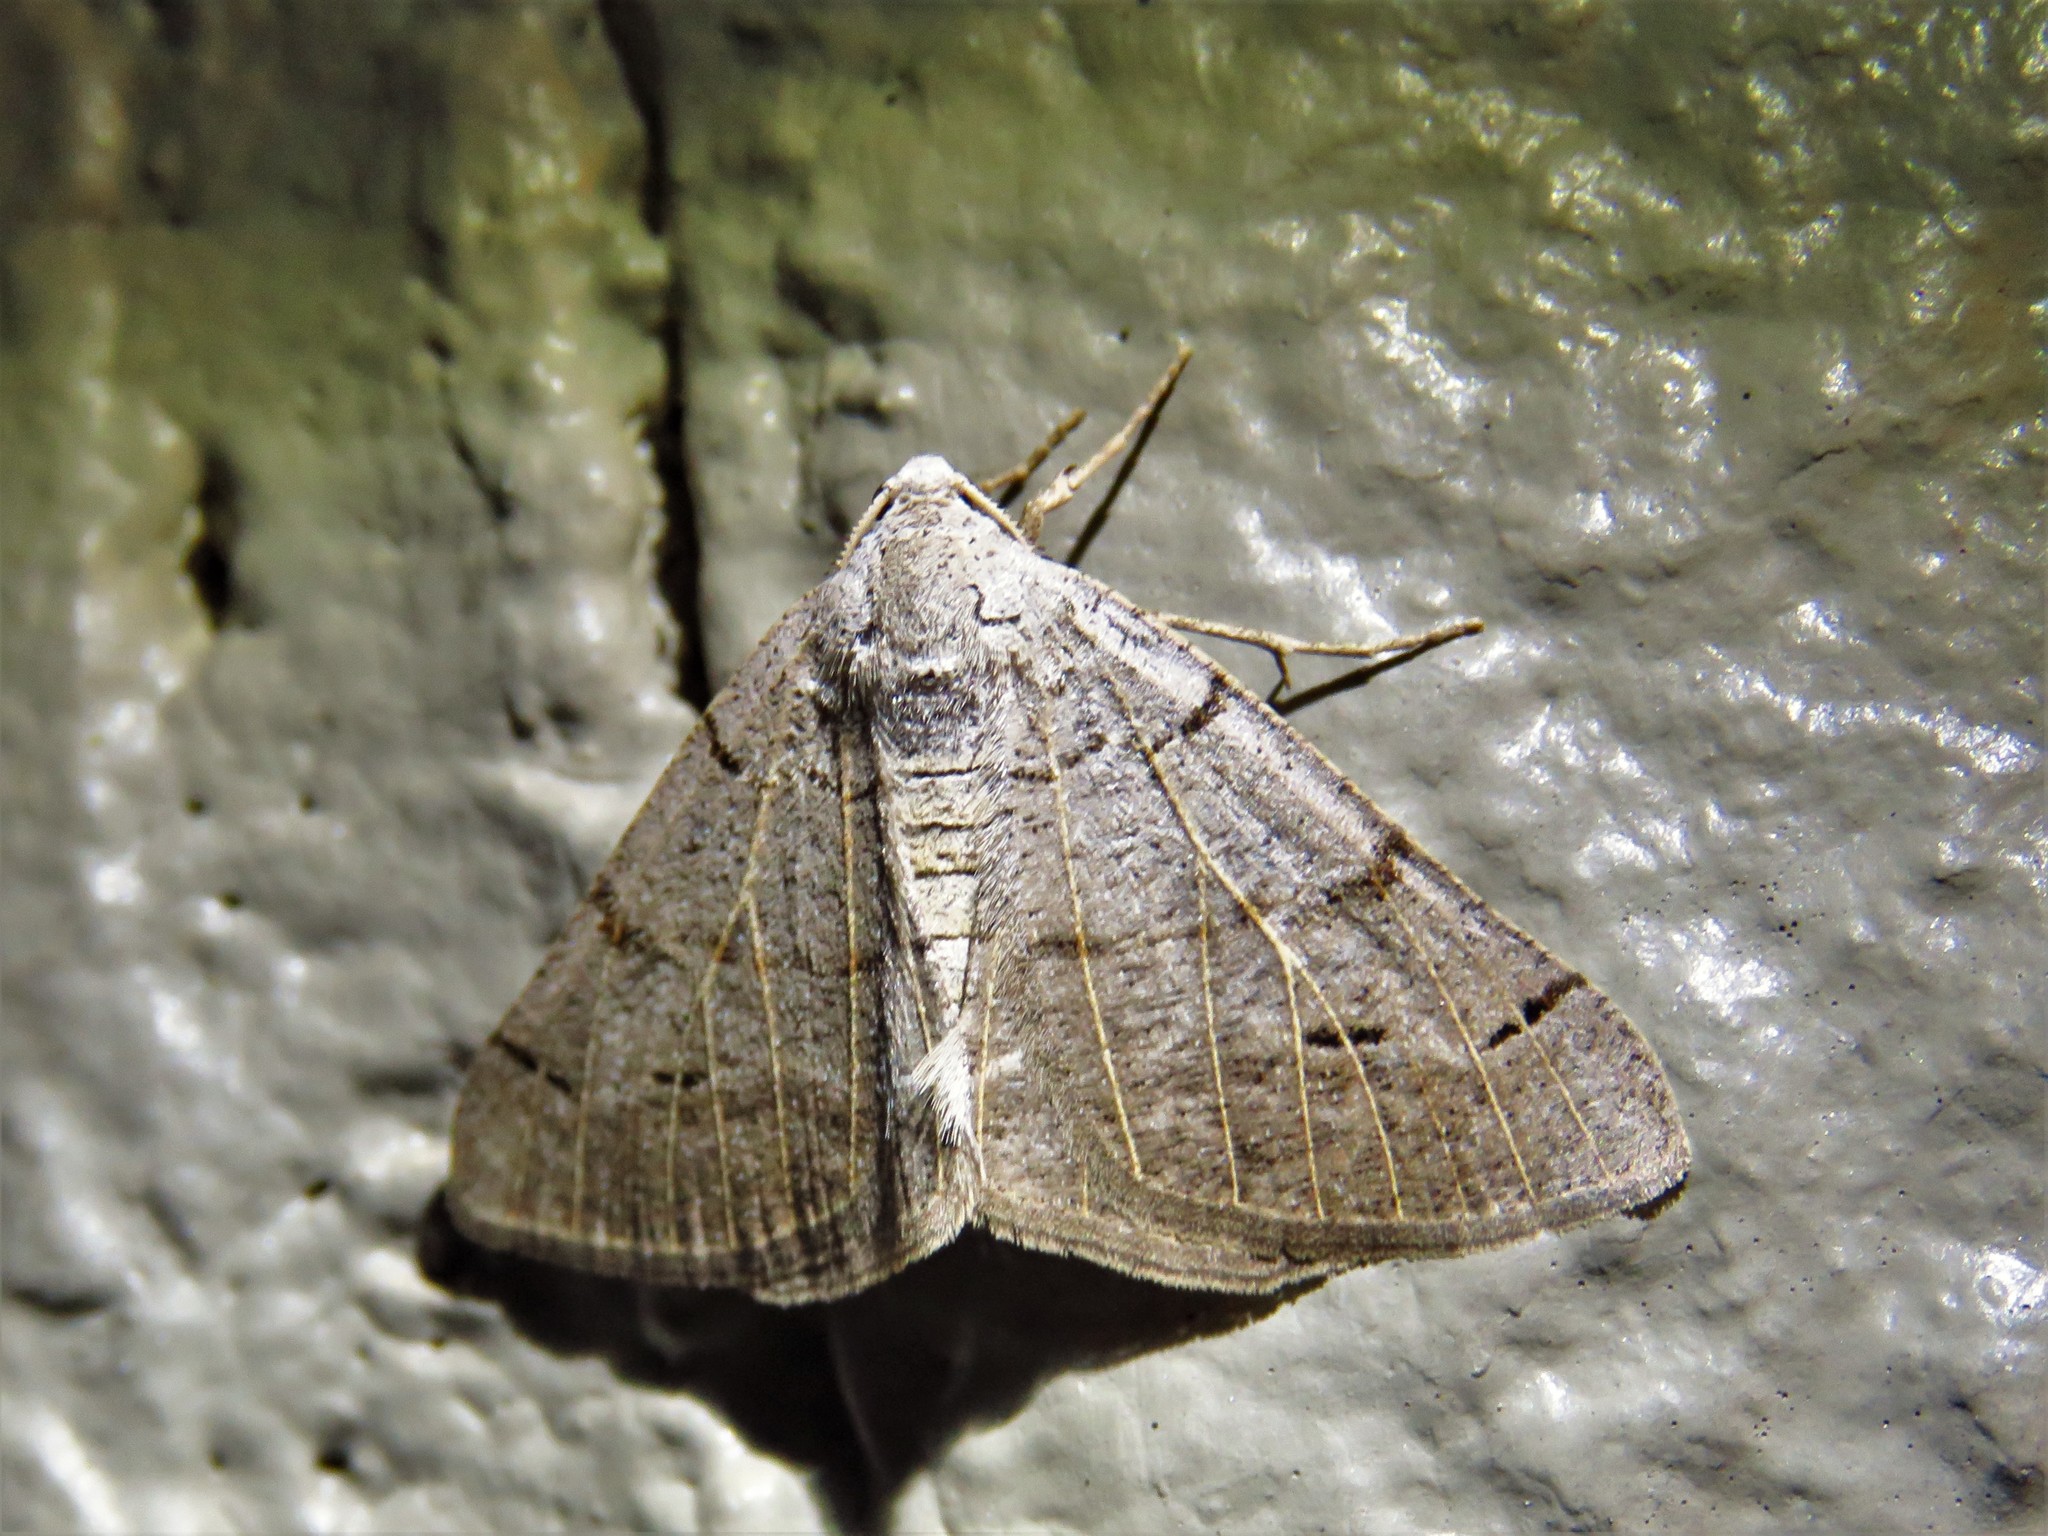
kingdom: Animalia
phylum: Arthropoda
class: Insecta
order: Lepidoptera
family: Geometridae
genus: Isturgia
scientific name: Isturgia dislocaria
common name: Pale-viened enconista
